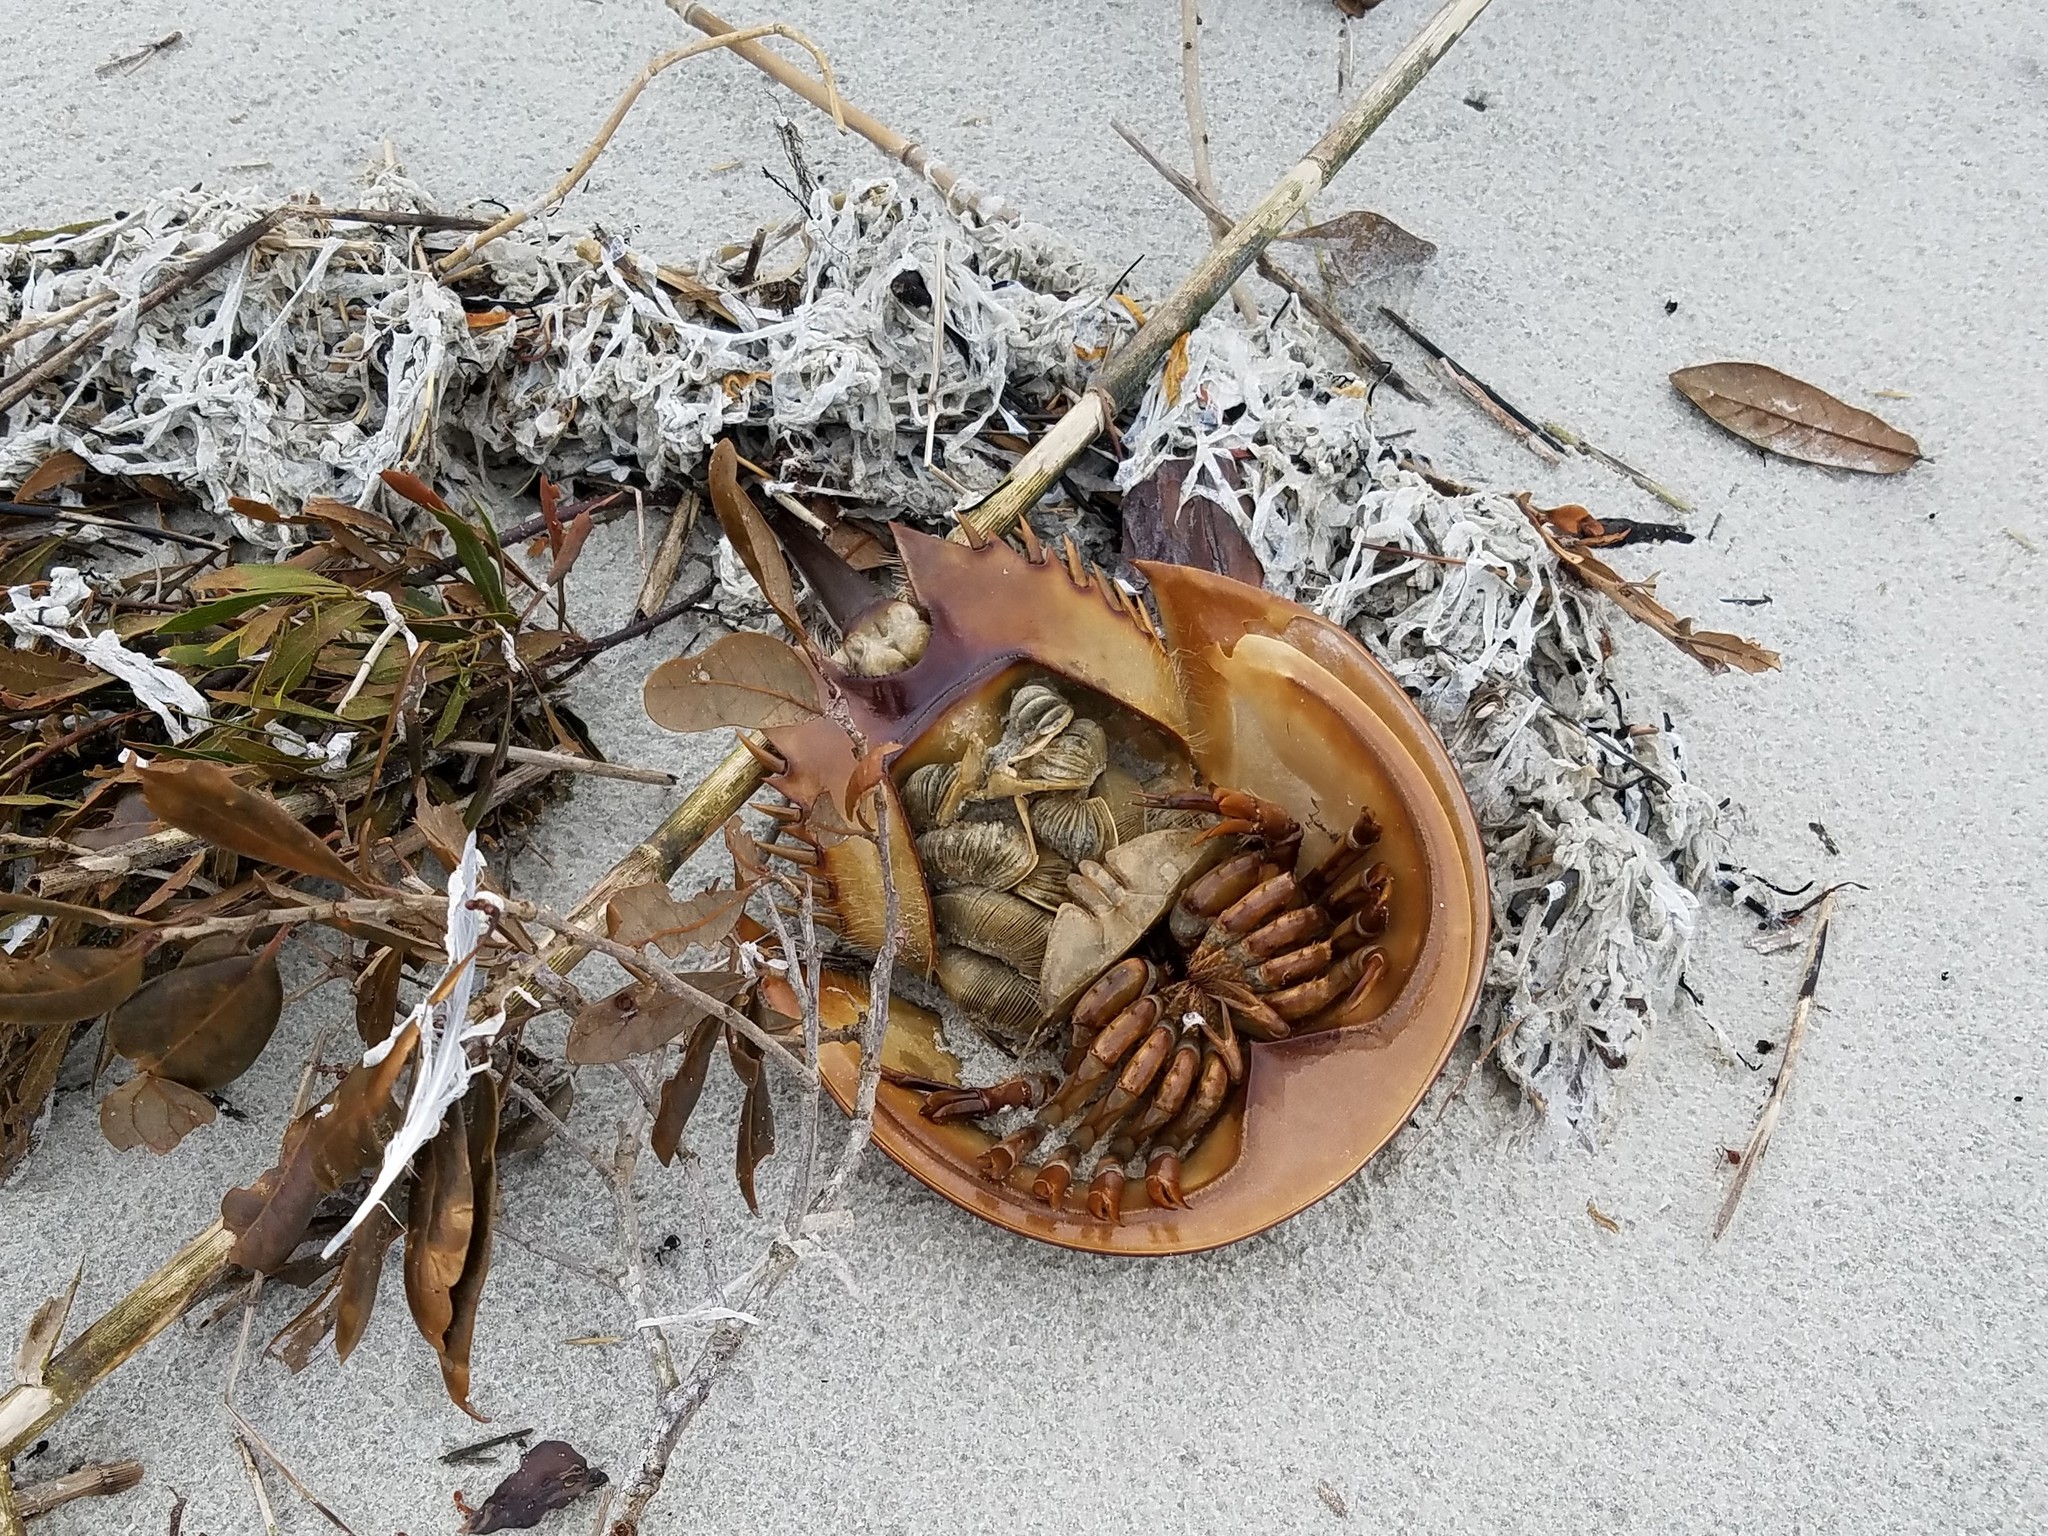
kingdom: Animalia
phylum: Arthropoda
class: Merostomata
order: Xiphosurida
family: Limulidae
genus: Limulus
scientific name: Limulus polyphemus
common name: Horseshoe crab
